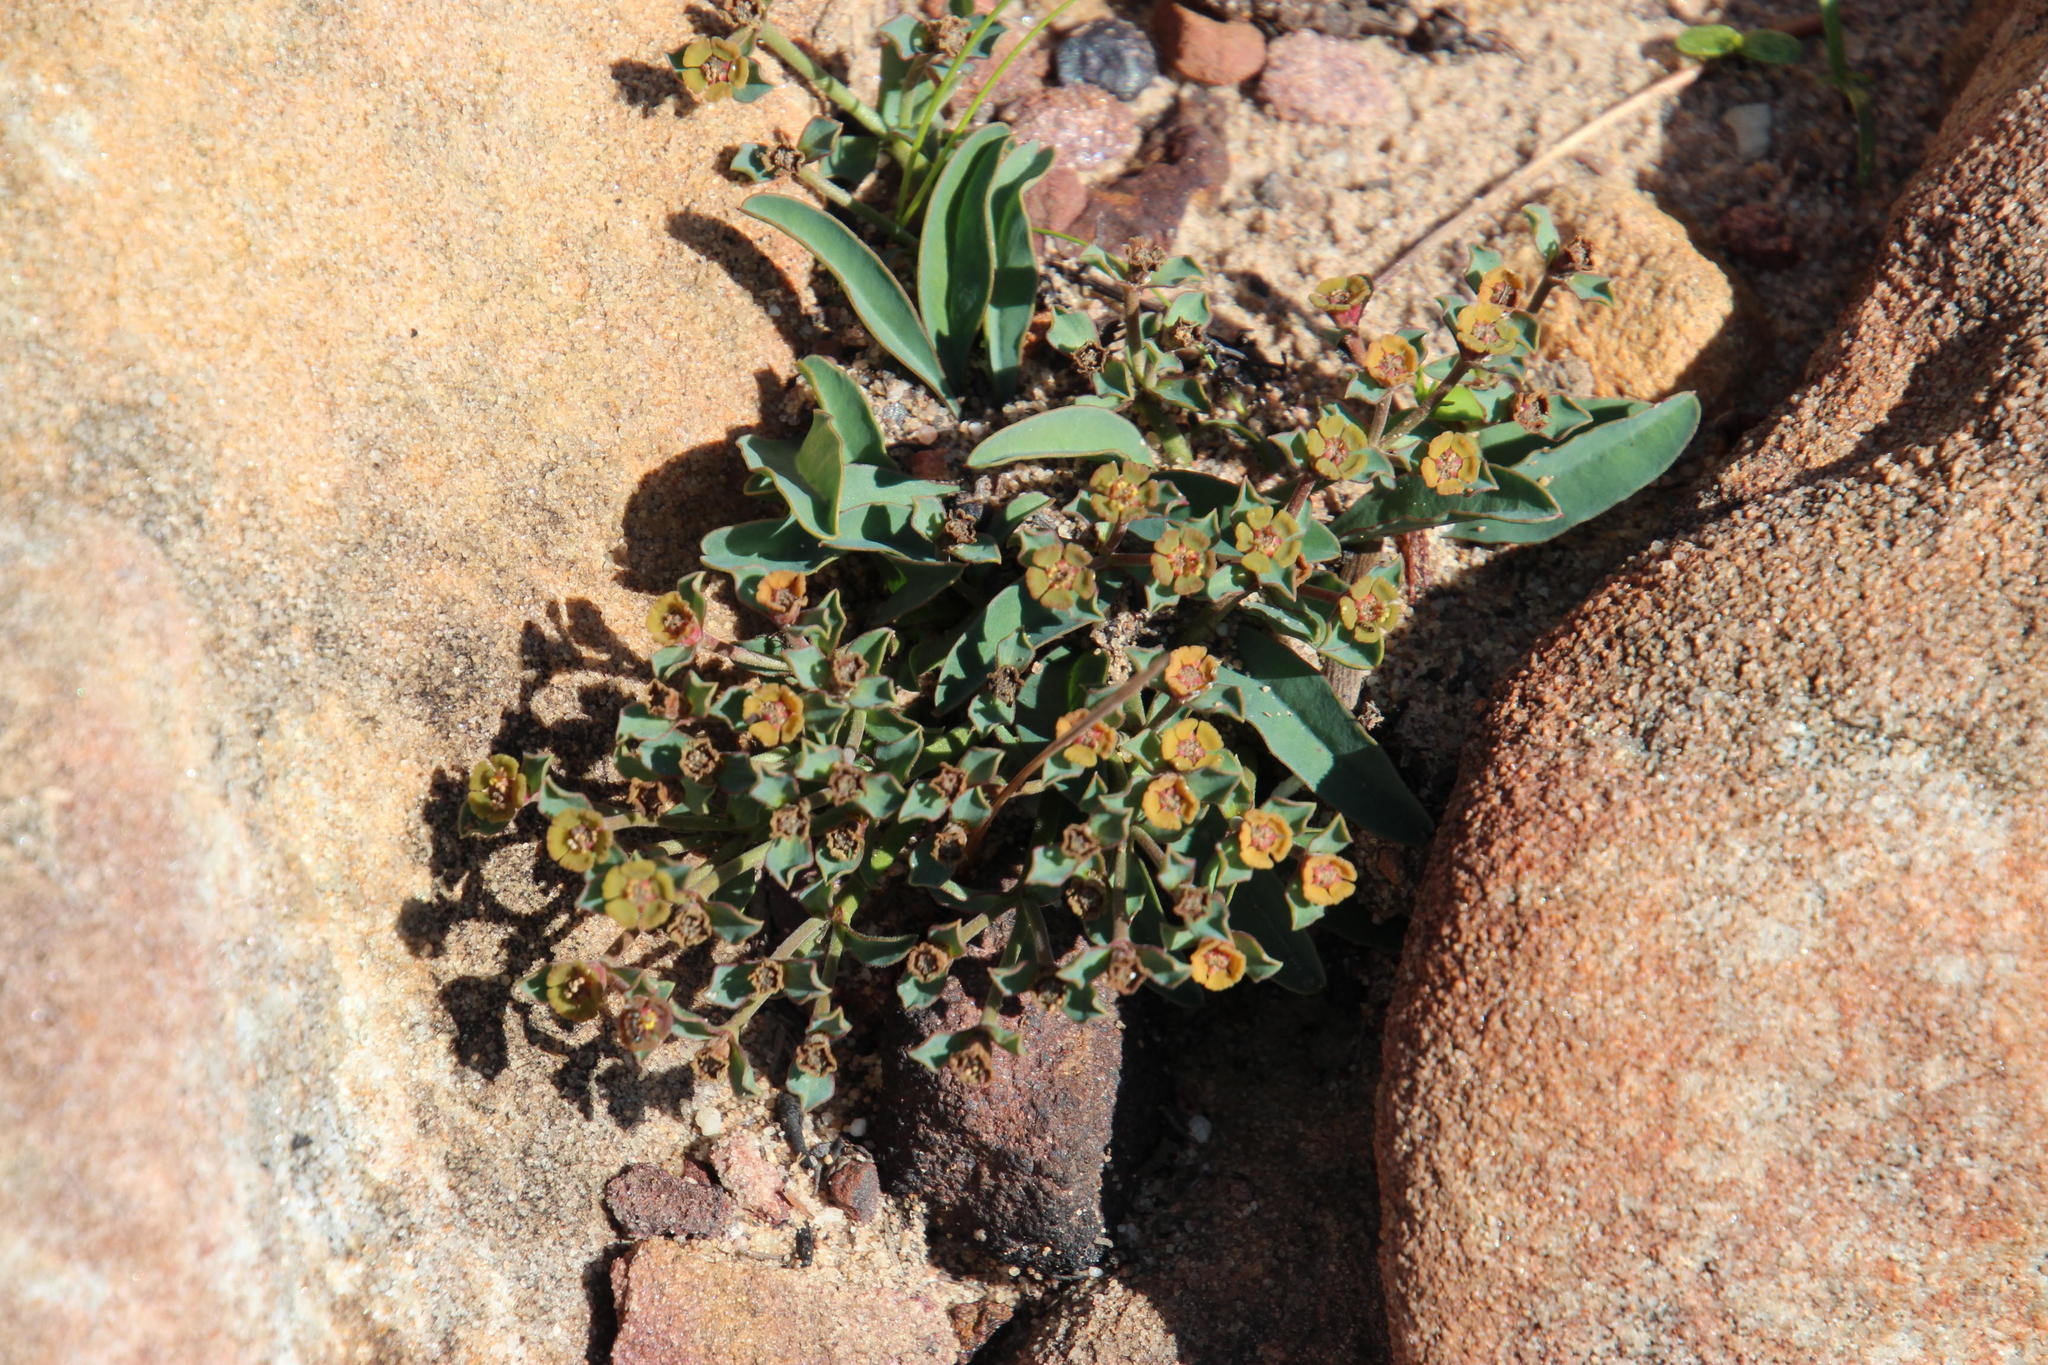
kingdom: Plantae
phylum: Tracheophyta
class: Magnoliopsida
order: Malpighiales
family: Euphorbiaceae
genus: Euphorbia
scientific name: Euphorbia tuberosa
